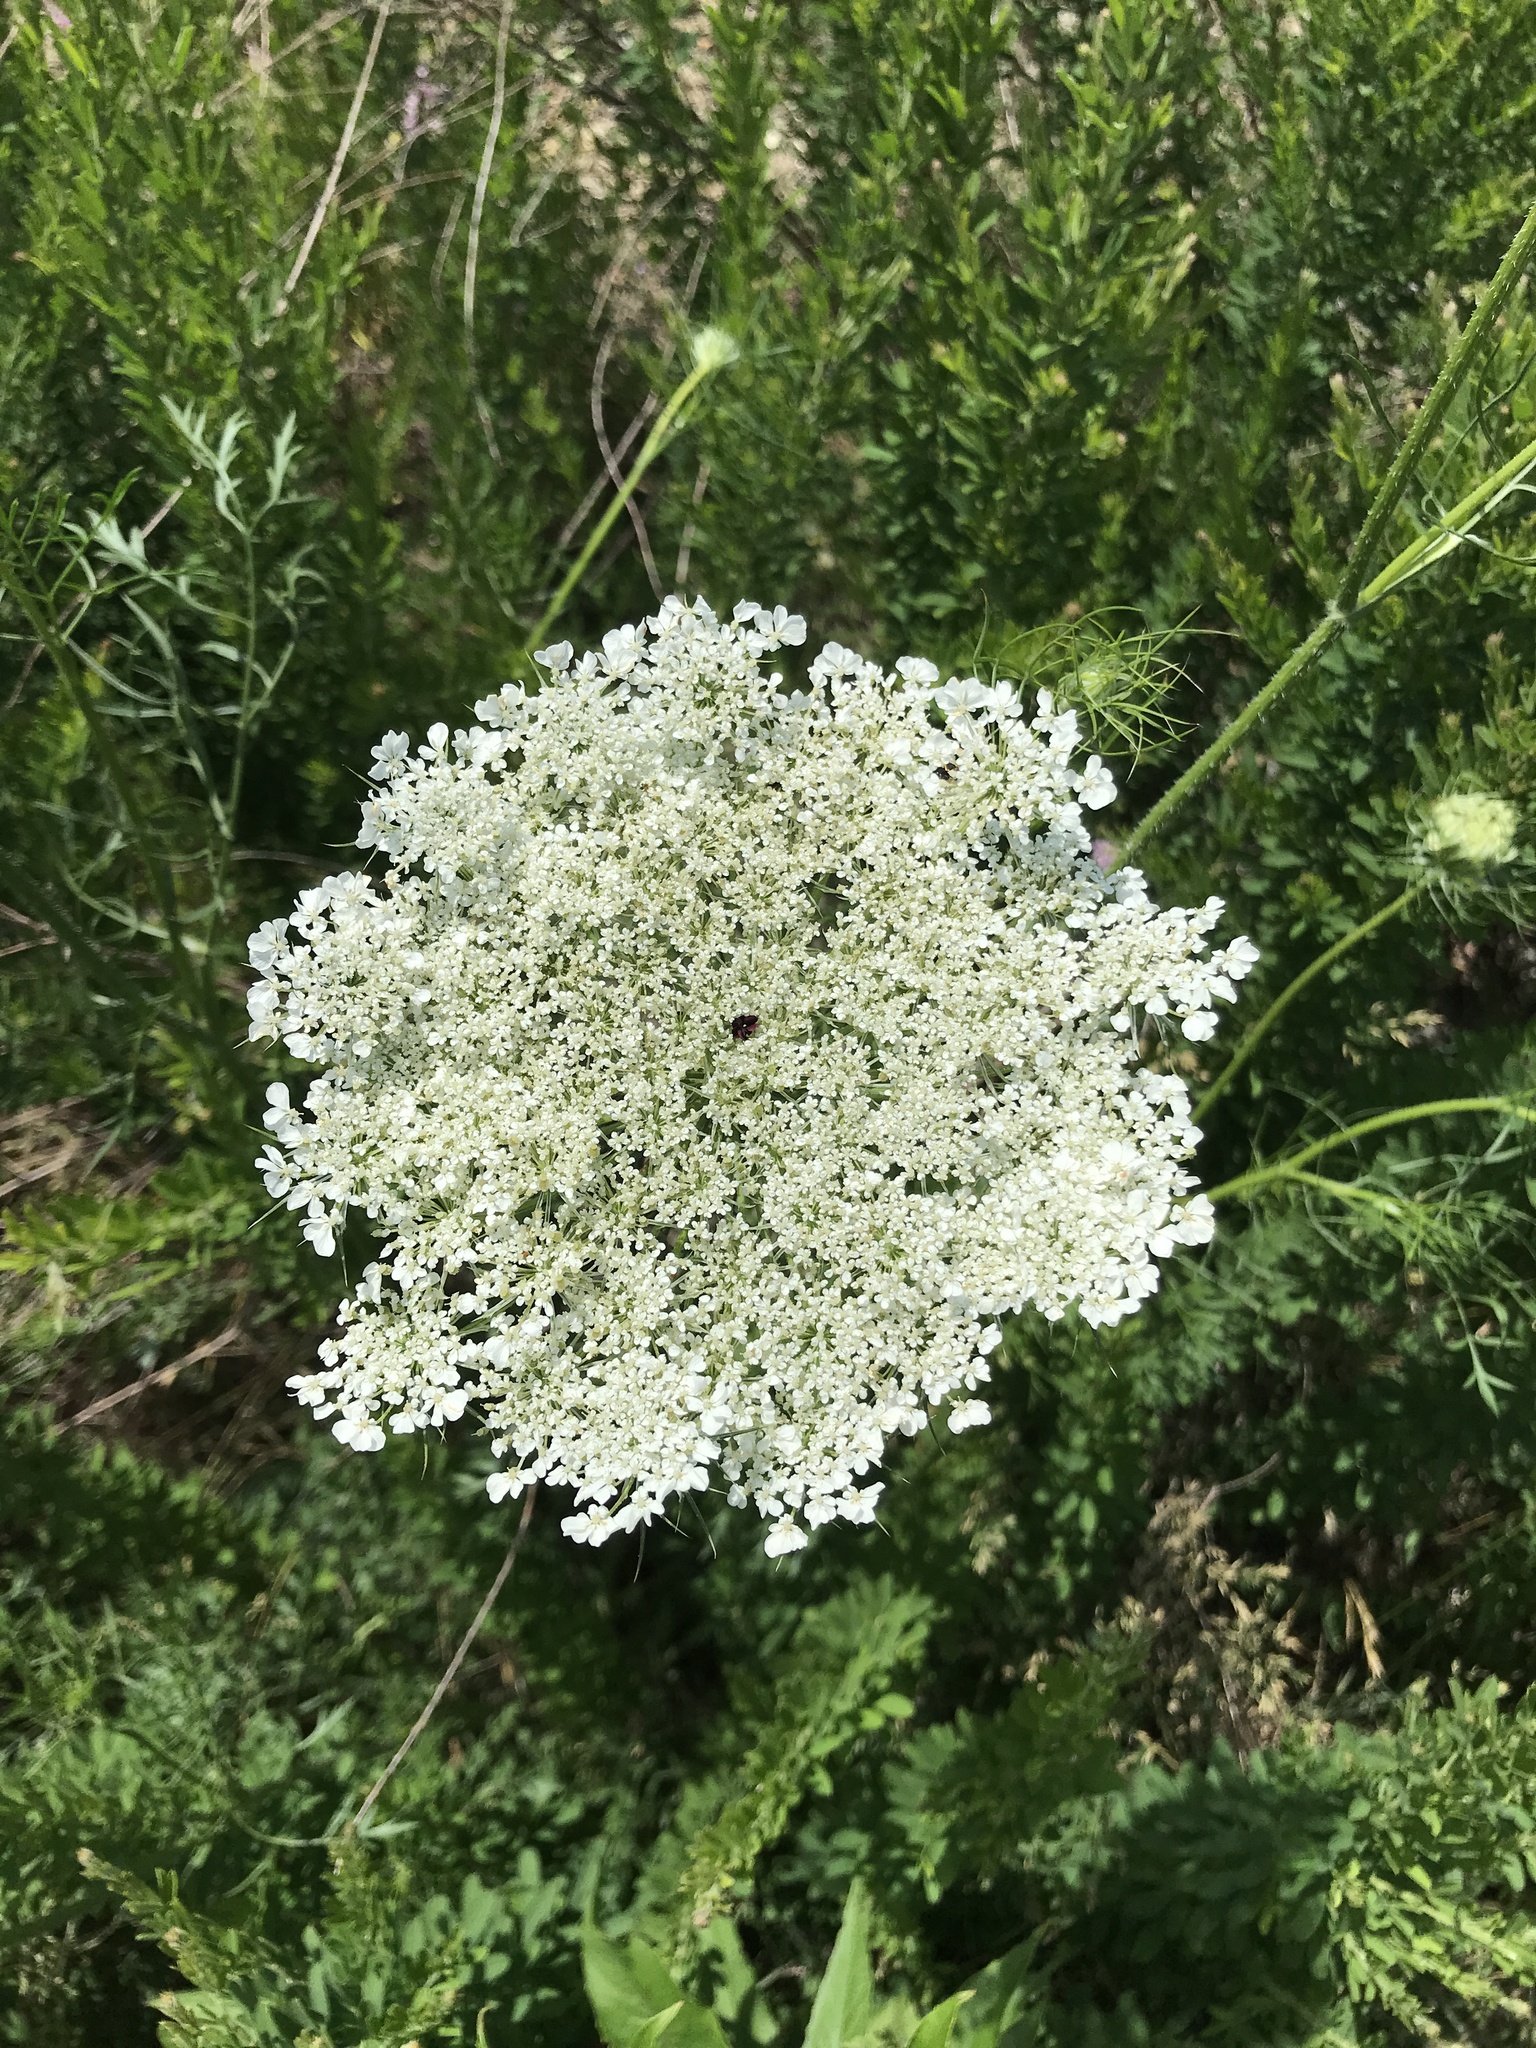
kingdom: Plantae
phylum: Tracheophyta
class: Magnoliopsida
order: Apiales
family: Apiaceae
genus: Daucus
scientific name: Daucus carota
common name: Wild carrot
